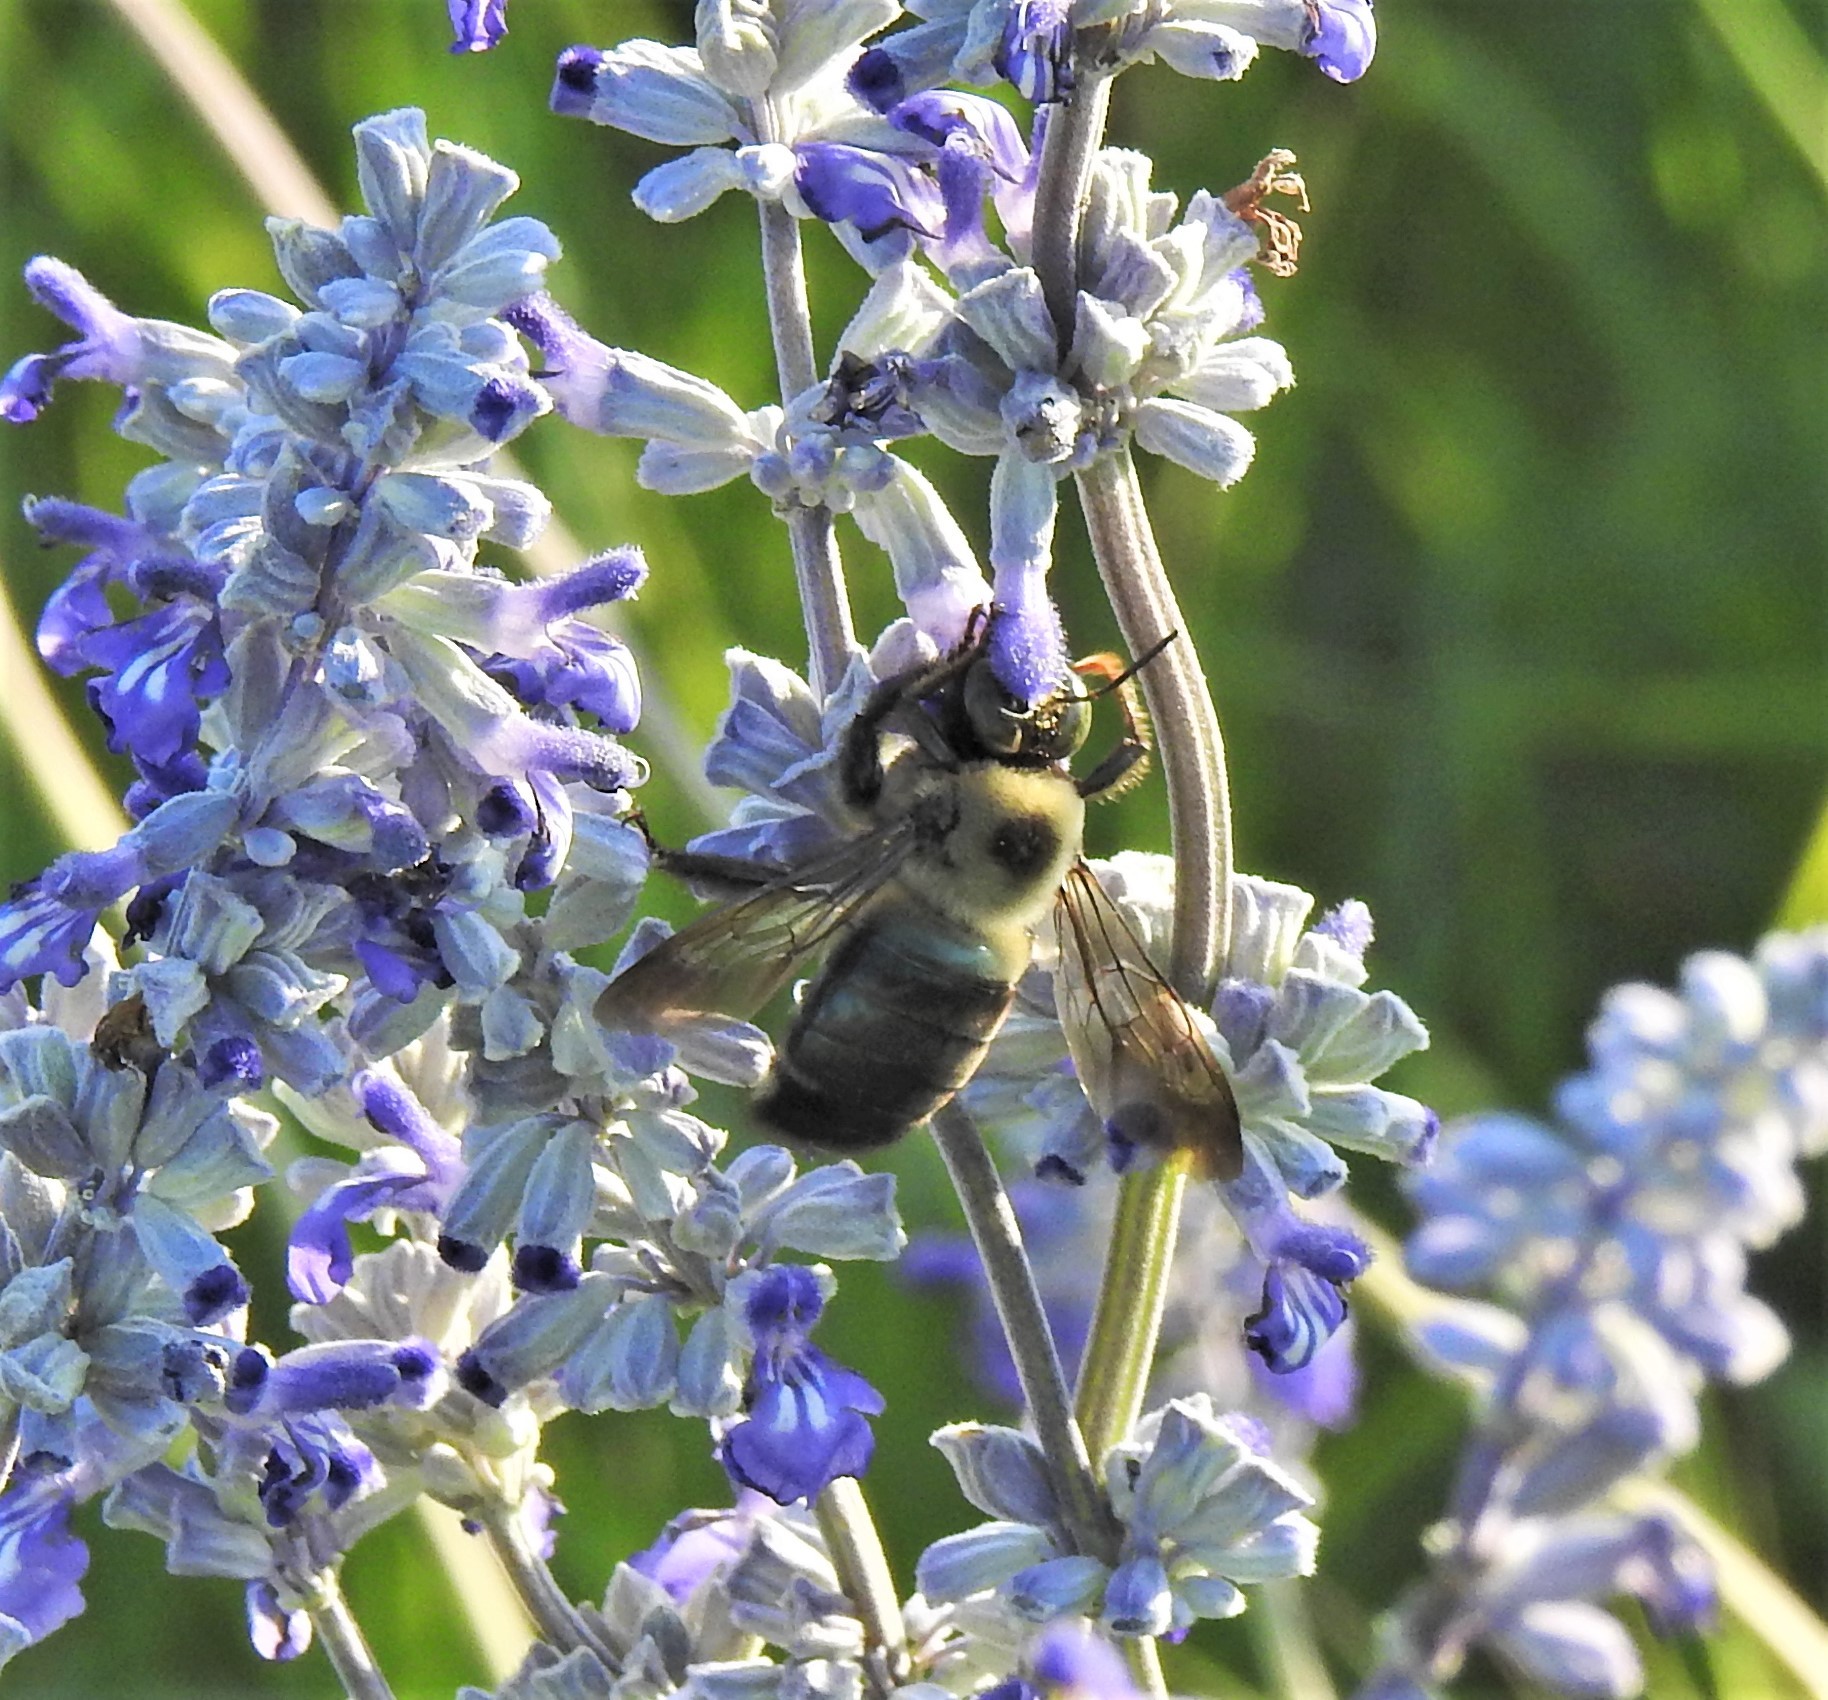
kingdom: Animalia
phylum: Arthropoda
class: Insecta
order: Hymenoptera
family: Apidae
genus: Xylocopa
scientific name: Xylocopa virginica
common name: Carpenter bee
